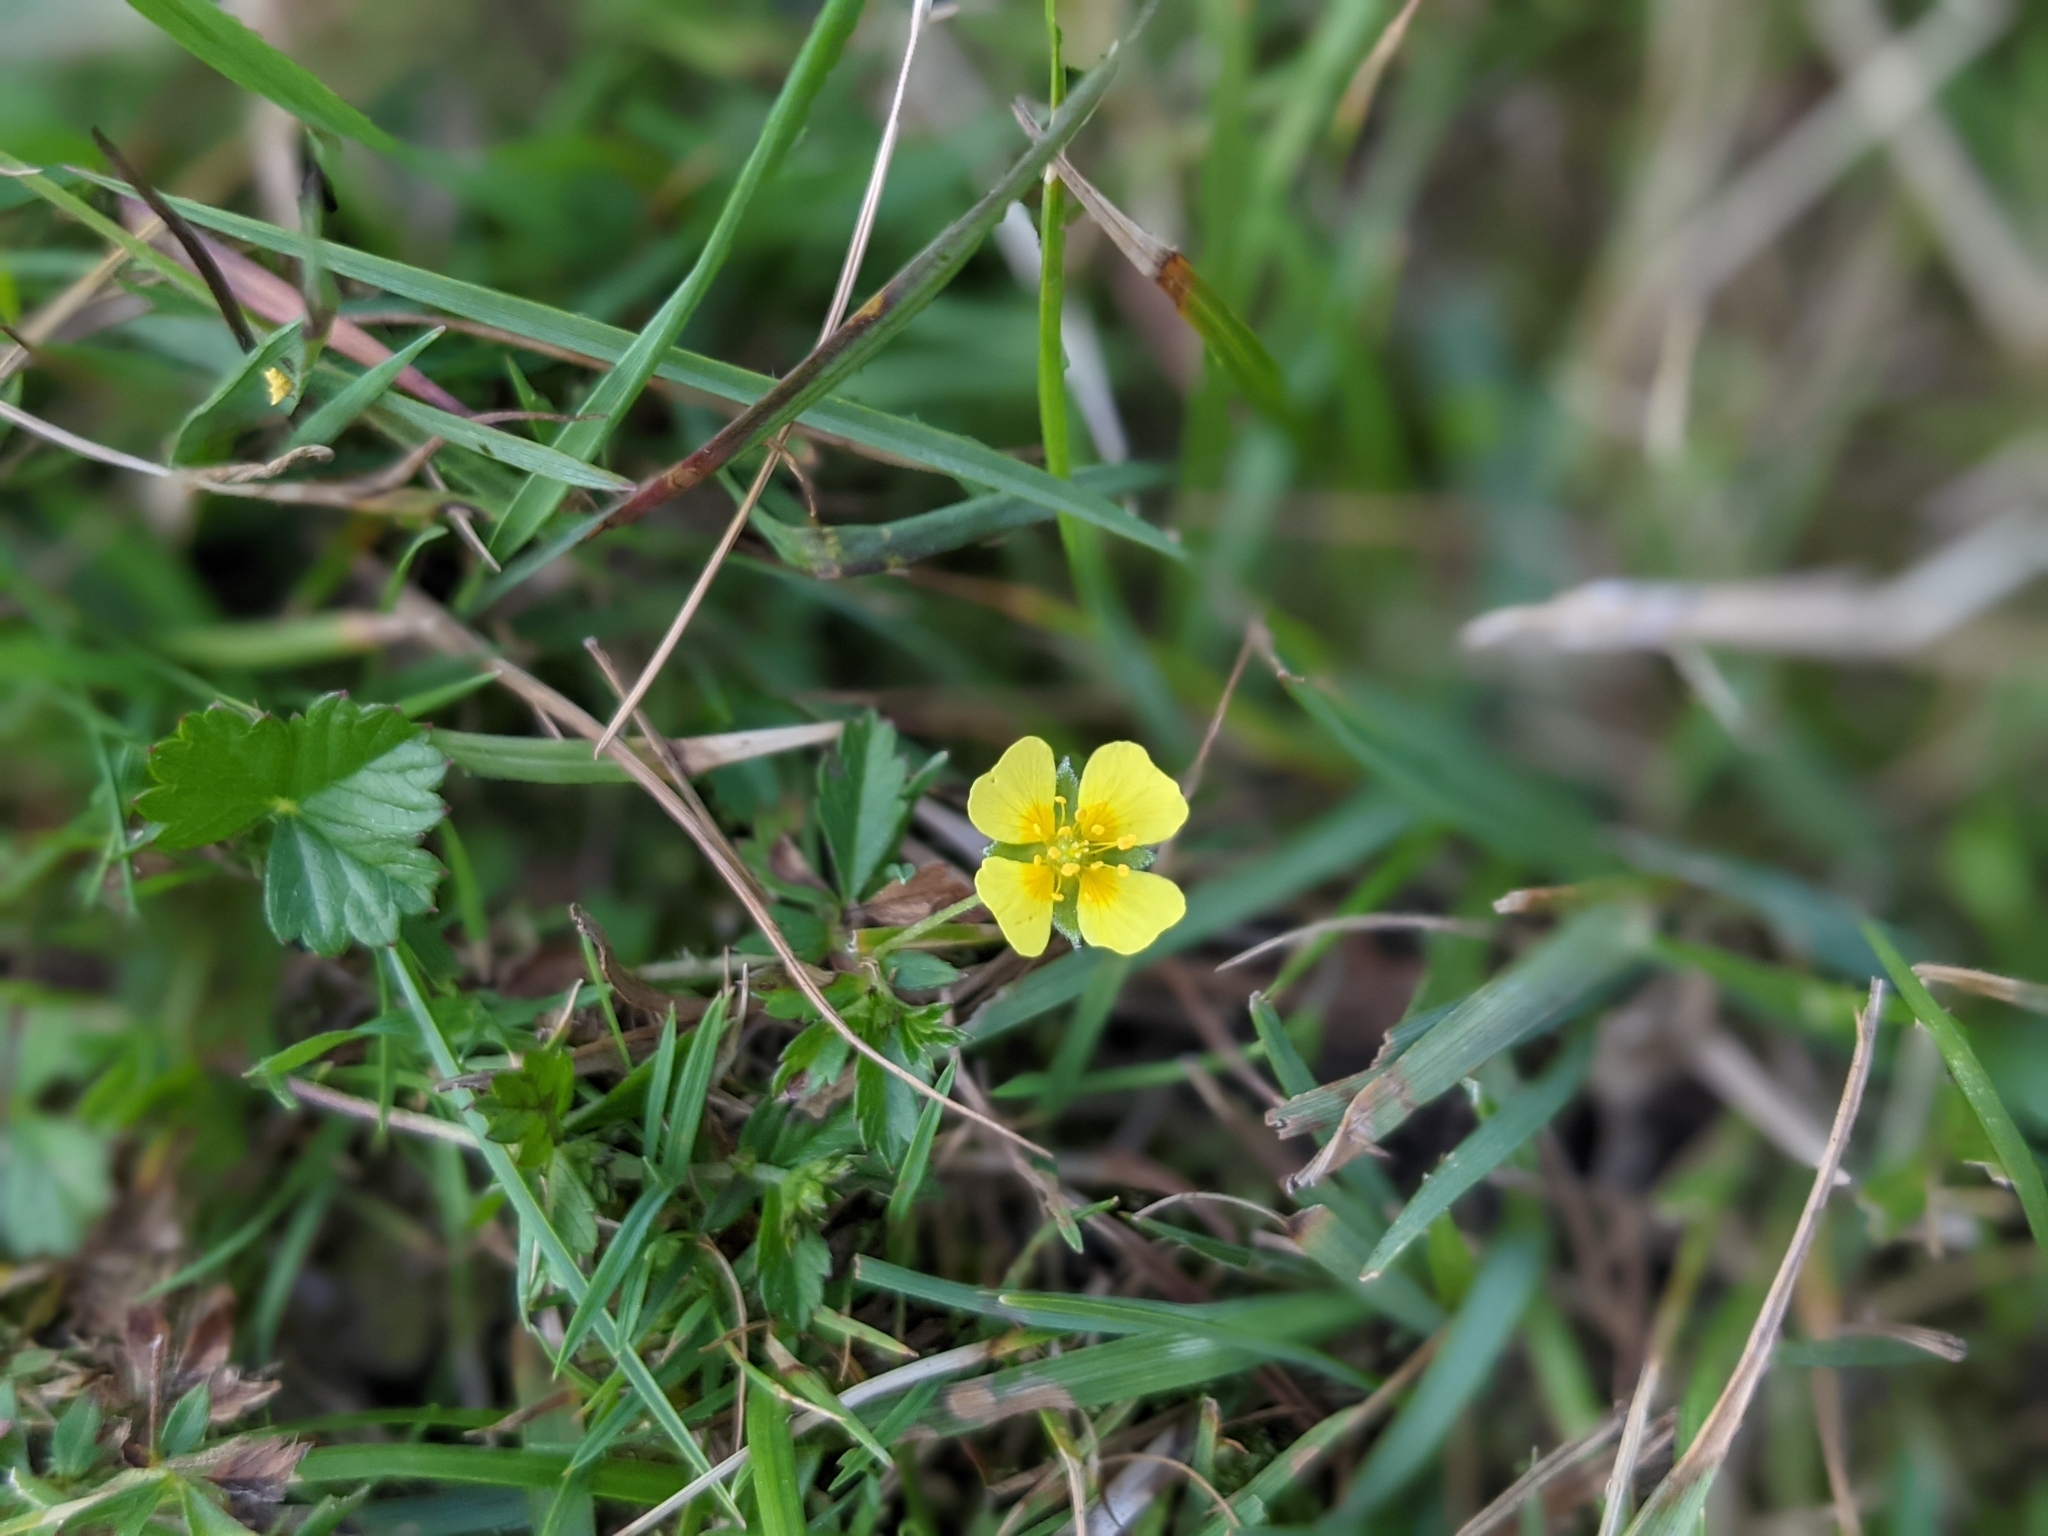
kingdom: Plantae
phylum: Tracheophyta
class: Magnoliopsida
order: Rosales
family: Rosaceae
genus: Potentilla
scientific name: Potentilla erecta
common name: Tormentil
